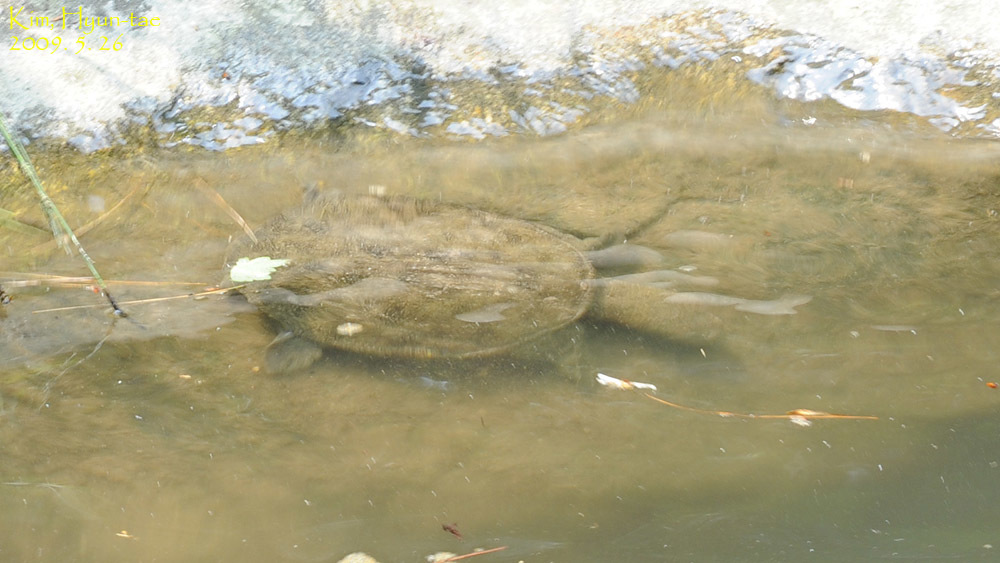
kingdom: Animalia
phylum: Chordata
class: Testudines
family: Trionychidae
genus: Pelodiscus
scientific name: Pelodiscus sinensis
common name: Chinese softshell turtle
